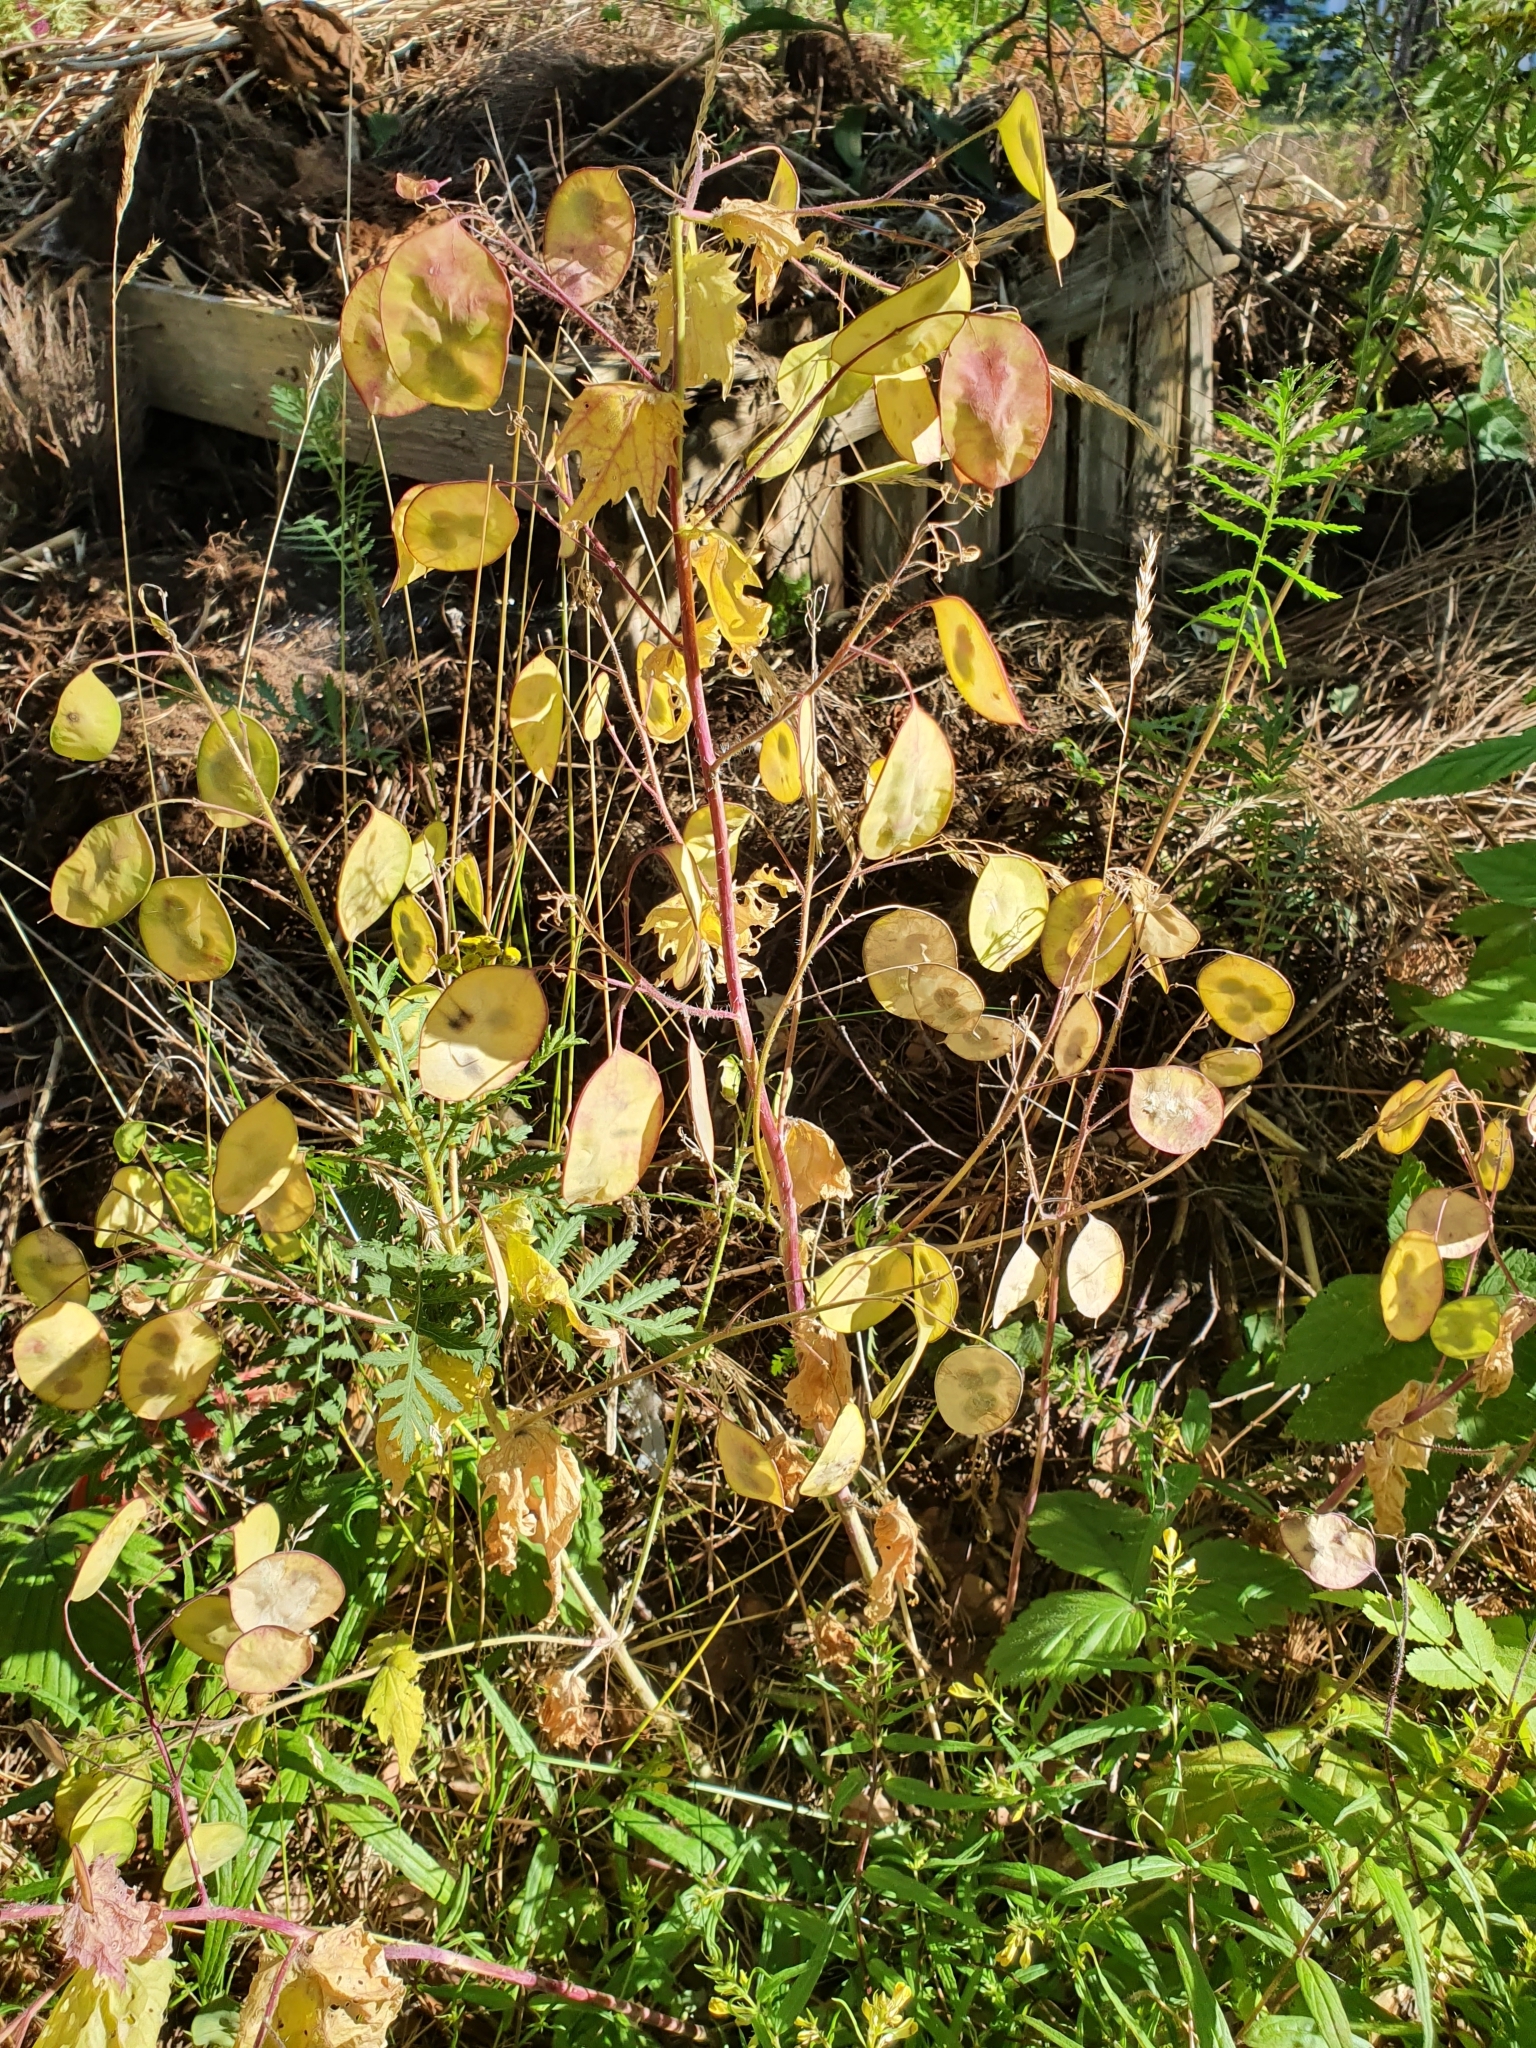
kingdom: Plantae
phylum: Tracheophyta
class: Magnoliopsida
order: Brassicales
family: Brassicaceae
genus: Lunaria
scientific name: Lunaria annua
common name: Honesty
